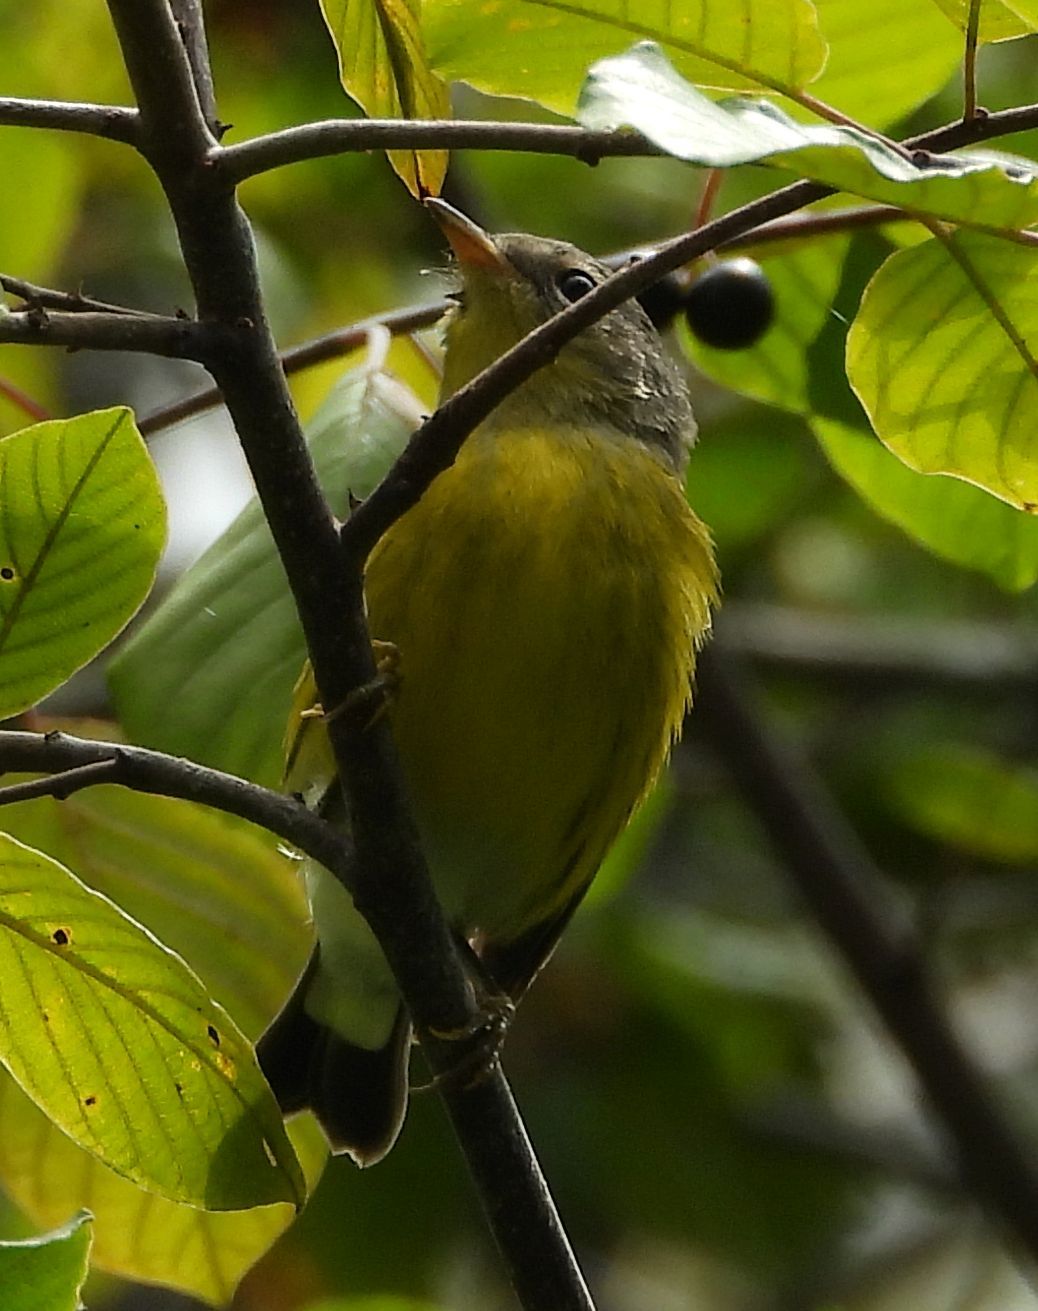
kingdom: Animalia
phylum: Chordata
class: Aves
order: Passeriformes
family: Parulidae
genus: Setophaga
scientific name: Setophaga magnolia
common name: Magnolia warbler
